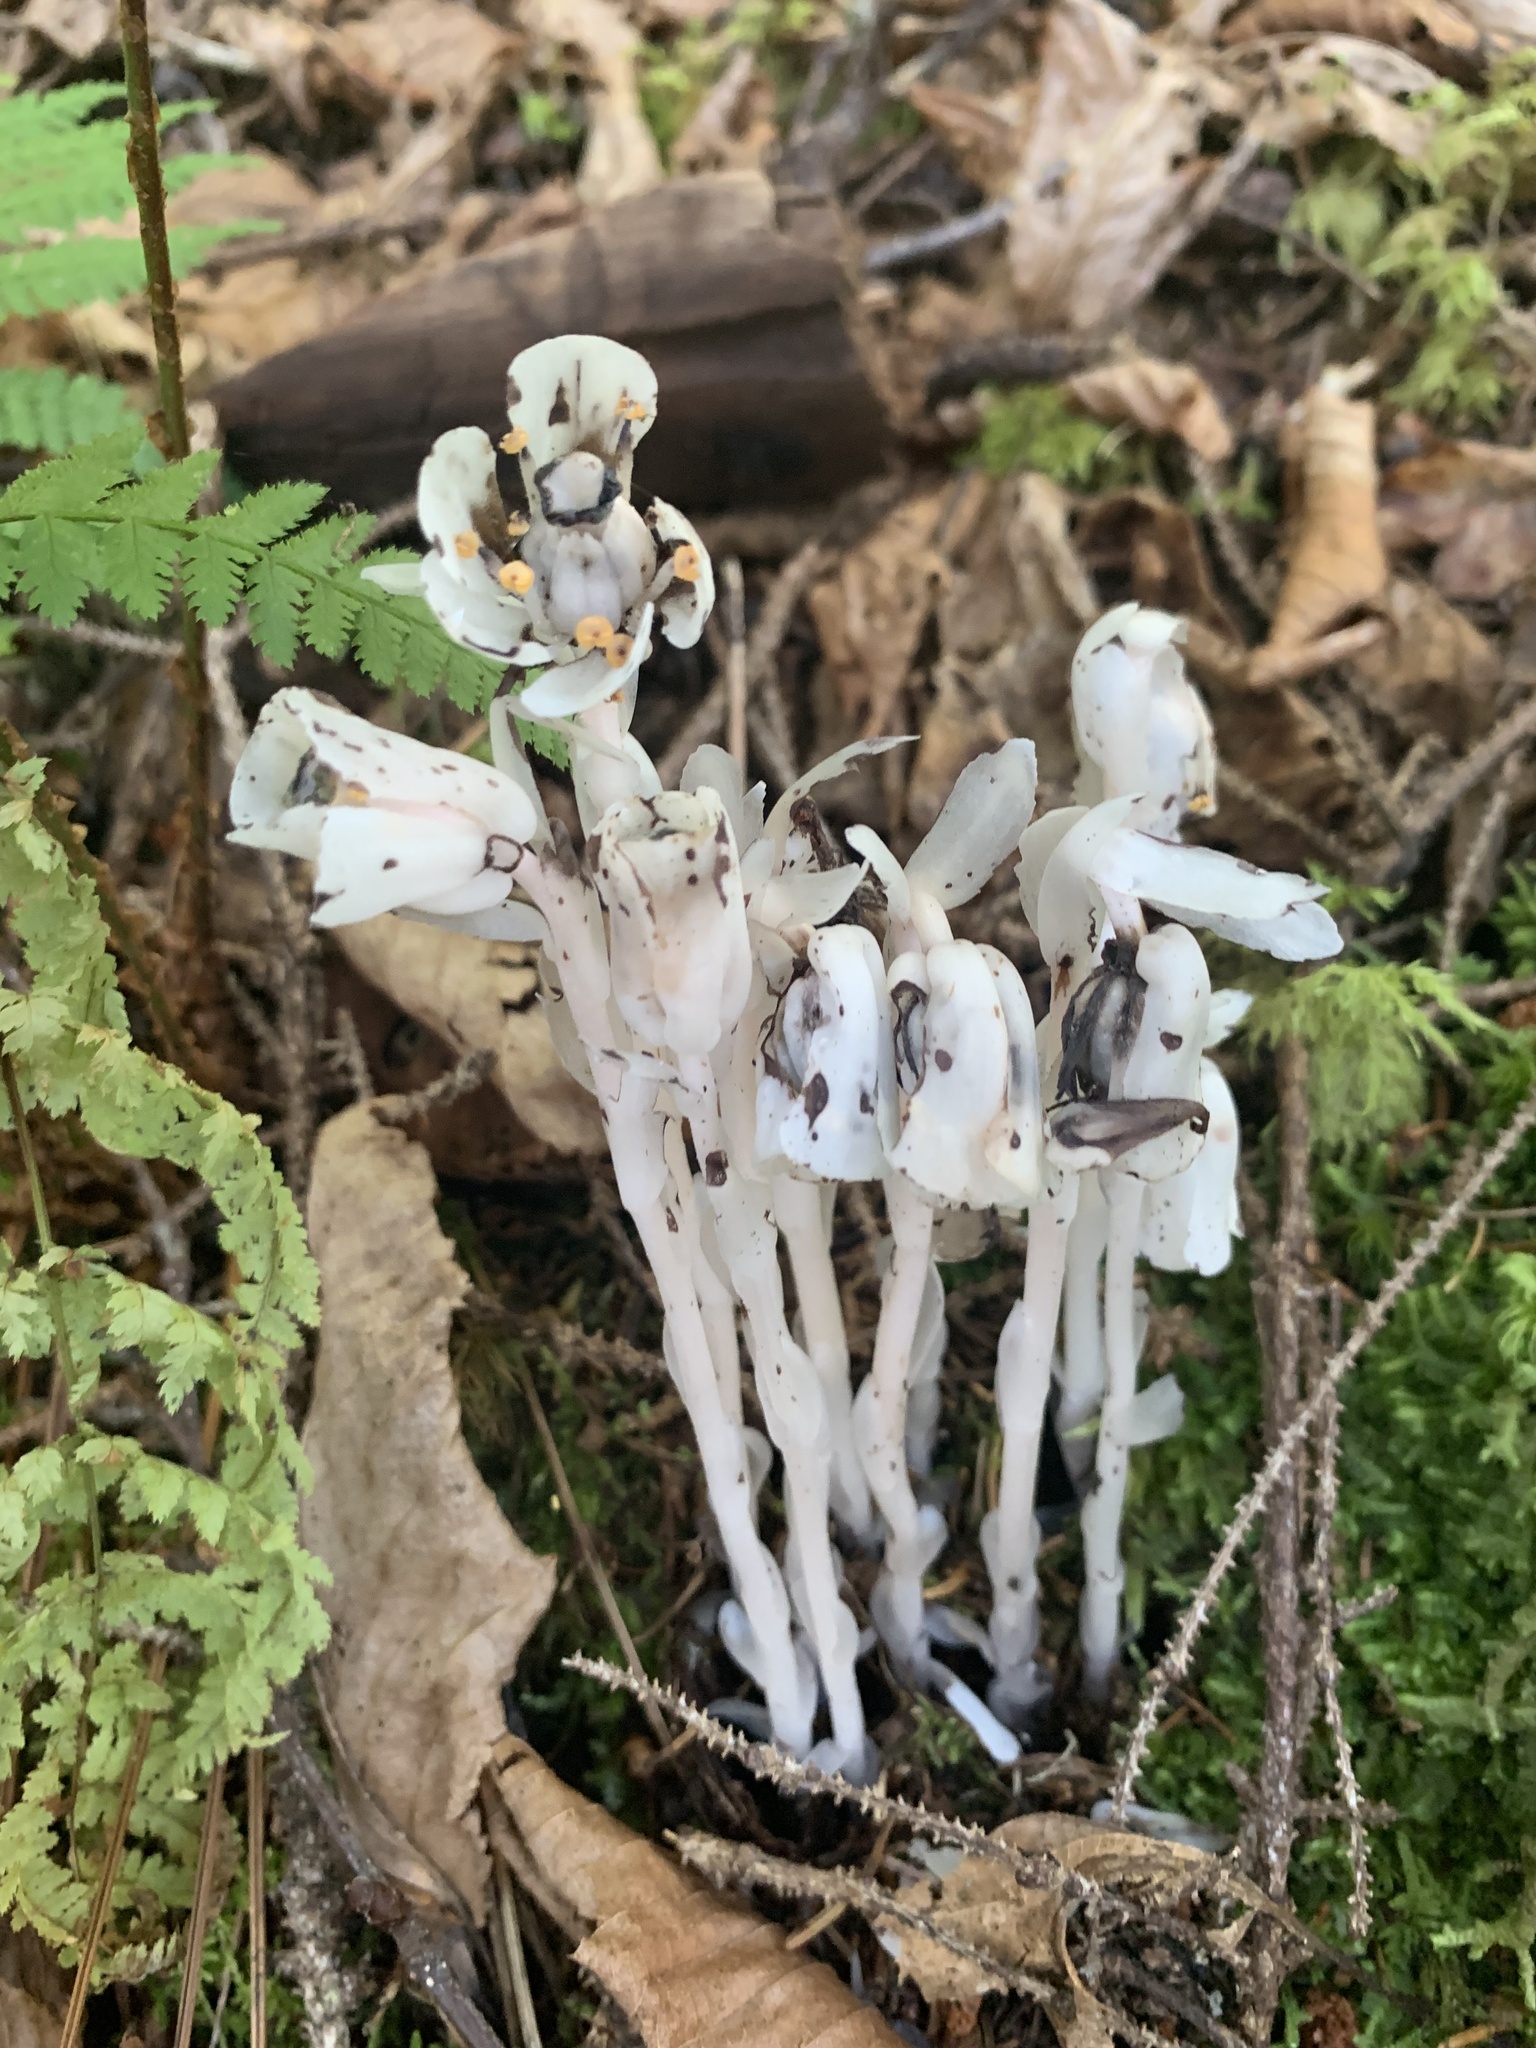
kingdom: Plantae
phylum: Tracheophyta
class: Magnoliopsida
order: Ericales
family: Ericaceae
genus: Monotropa
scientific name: Monotropa uniflora
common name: Convulsion root
